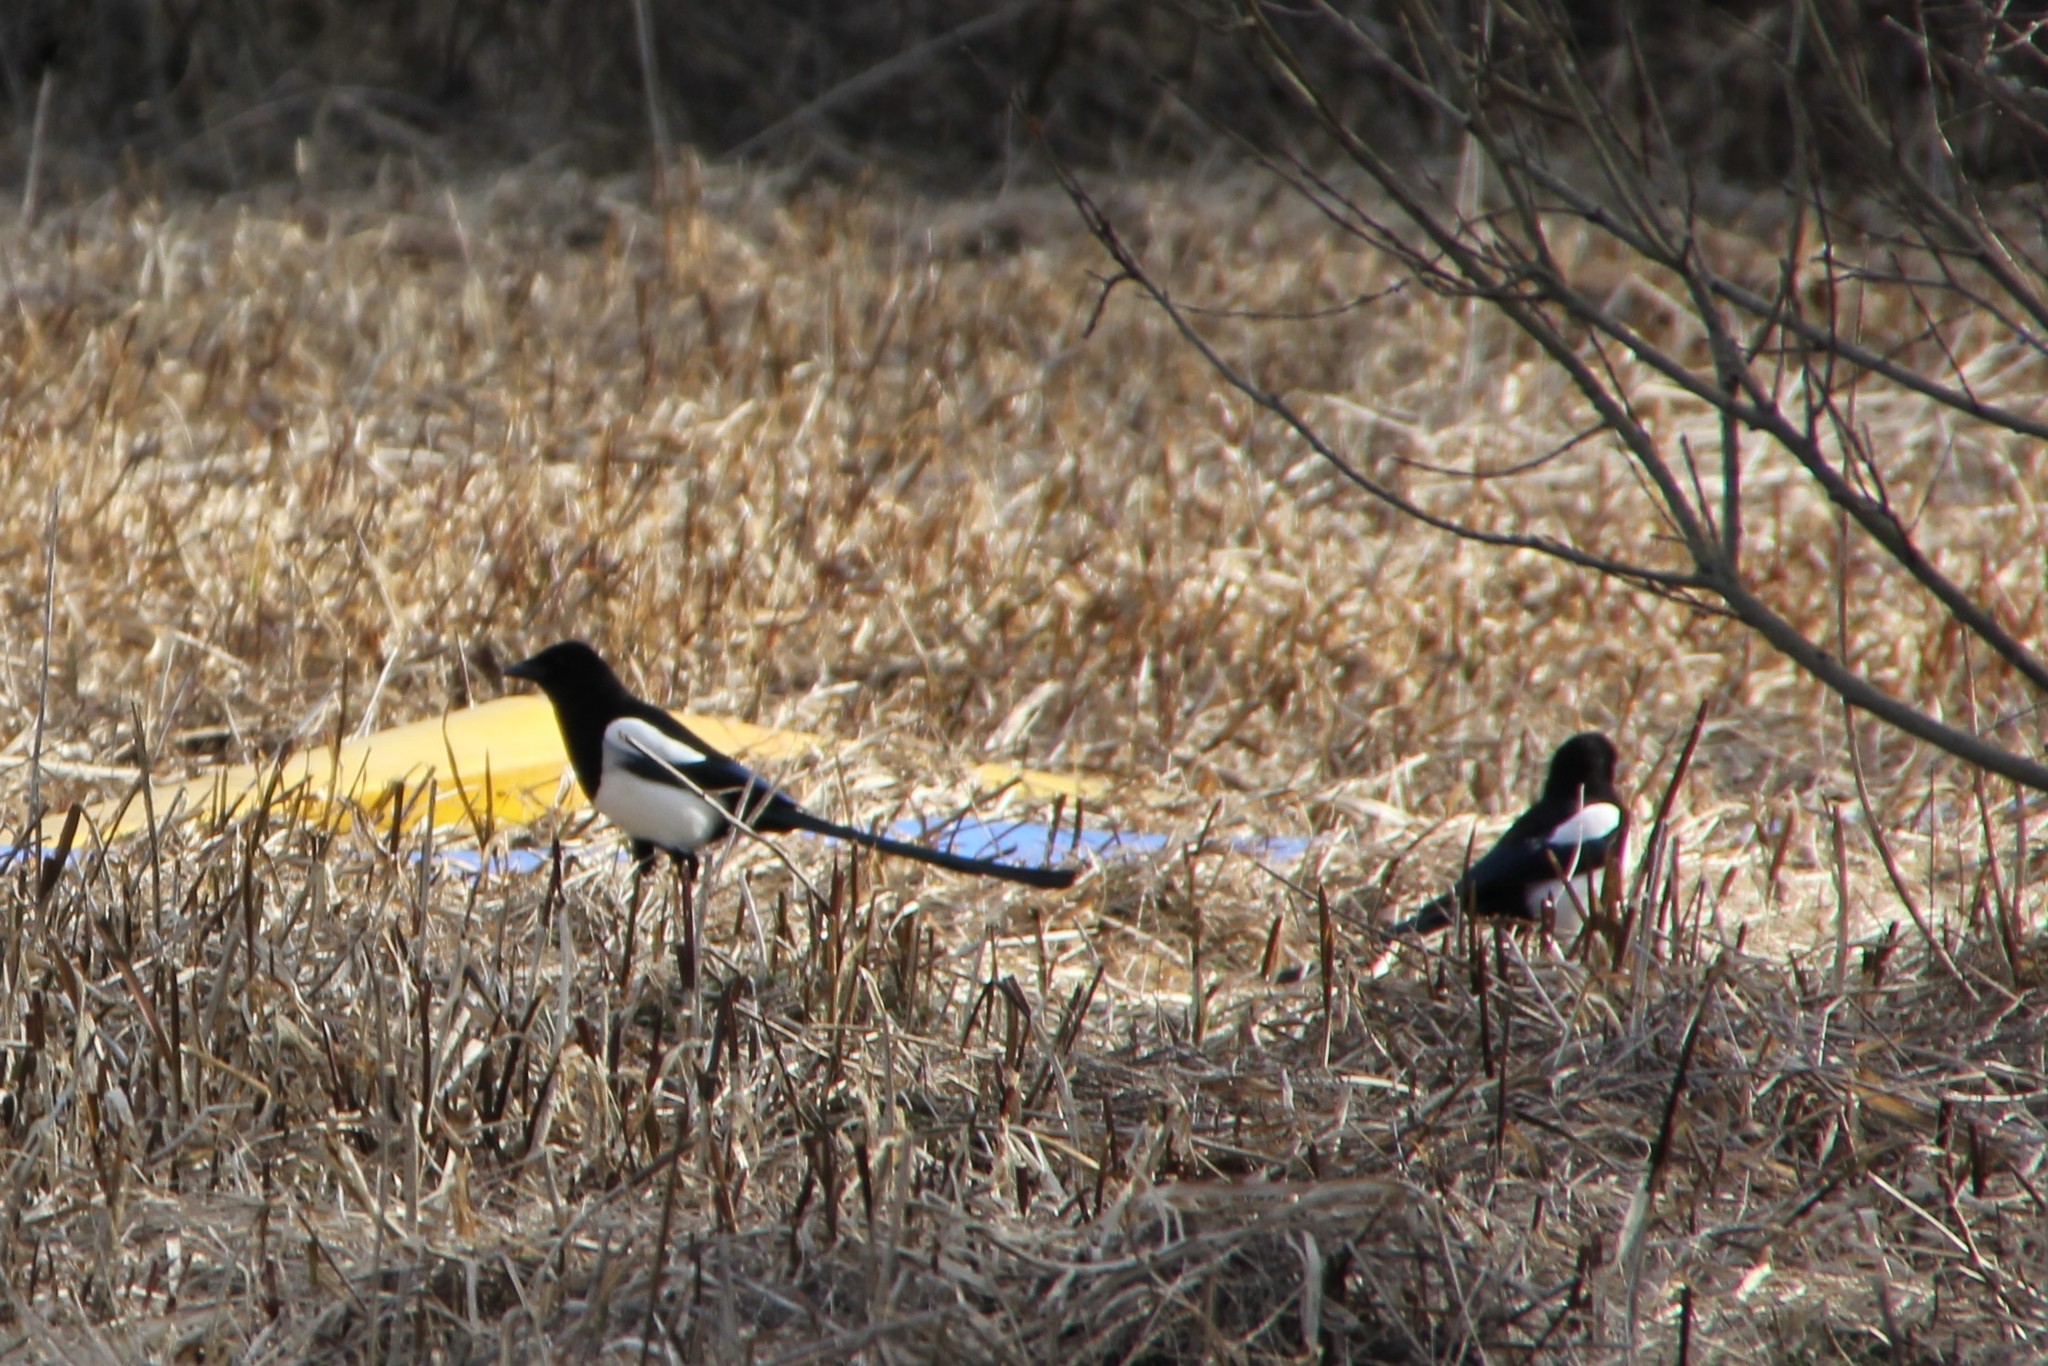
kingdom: Animalia
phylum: Chordata
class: Aves
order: Passeriformes
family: Corvidae
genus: Pica
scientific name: Pica pica
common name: Eurasian magpie
